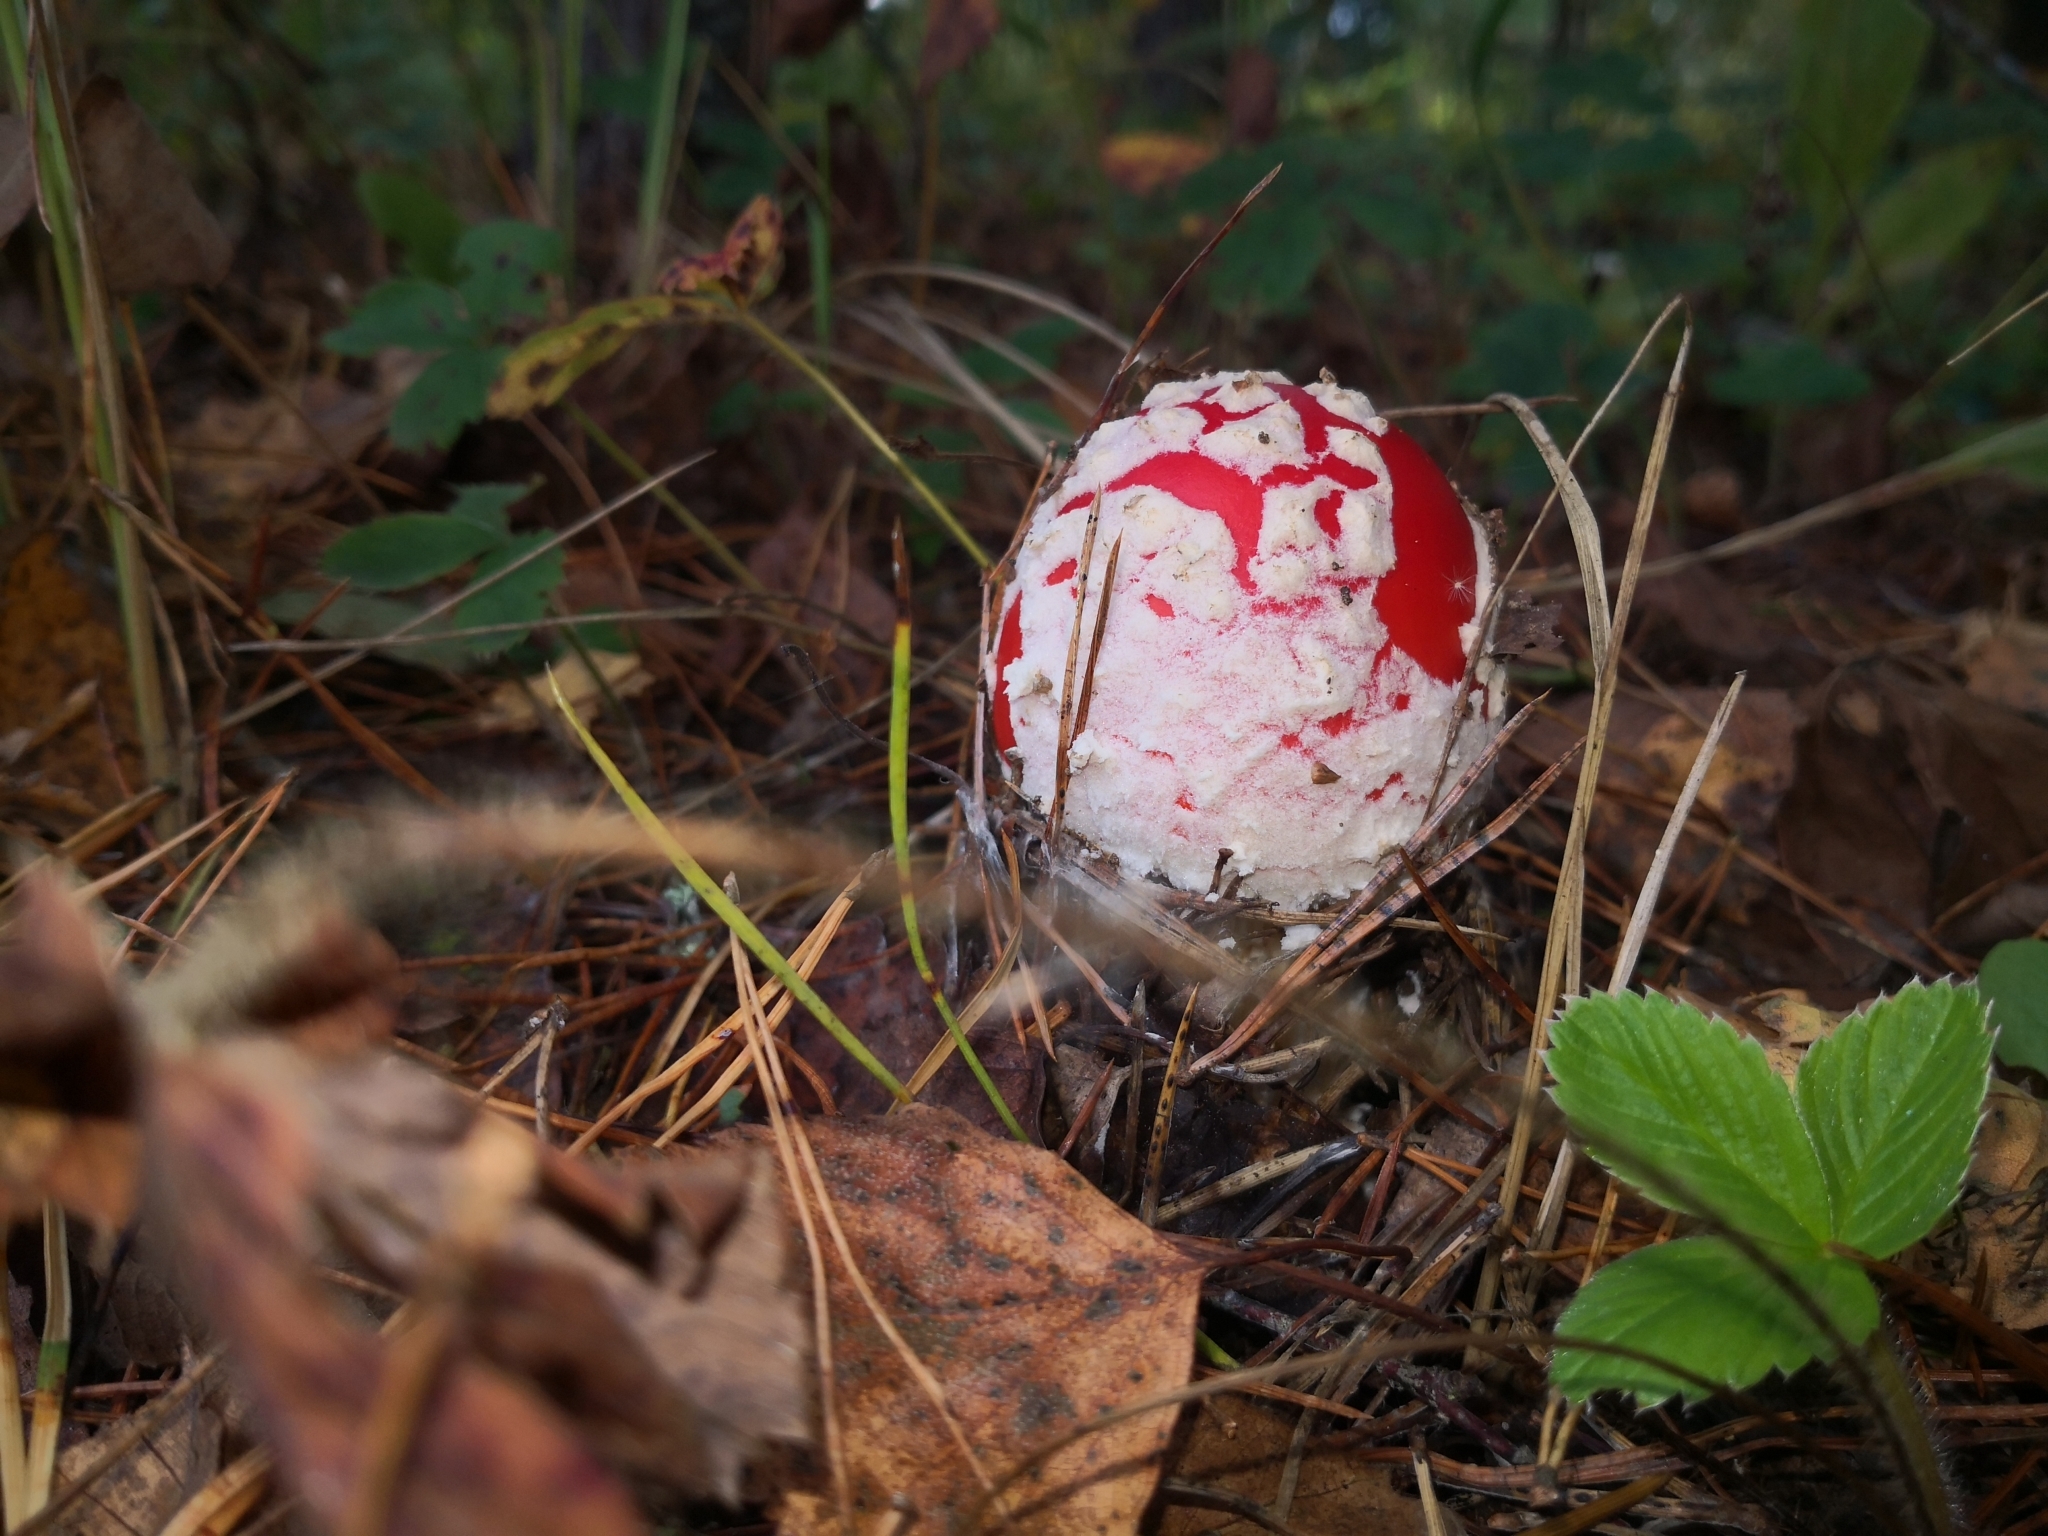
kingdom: Fungi
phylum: Basidiomycota
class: Agaricomycetes
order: Agaricales
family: Amanitaceae
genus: Amanita
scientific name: Amanita muscaria
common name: Fly agaric
